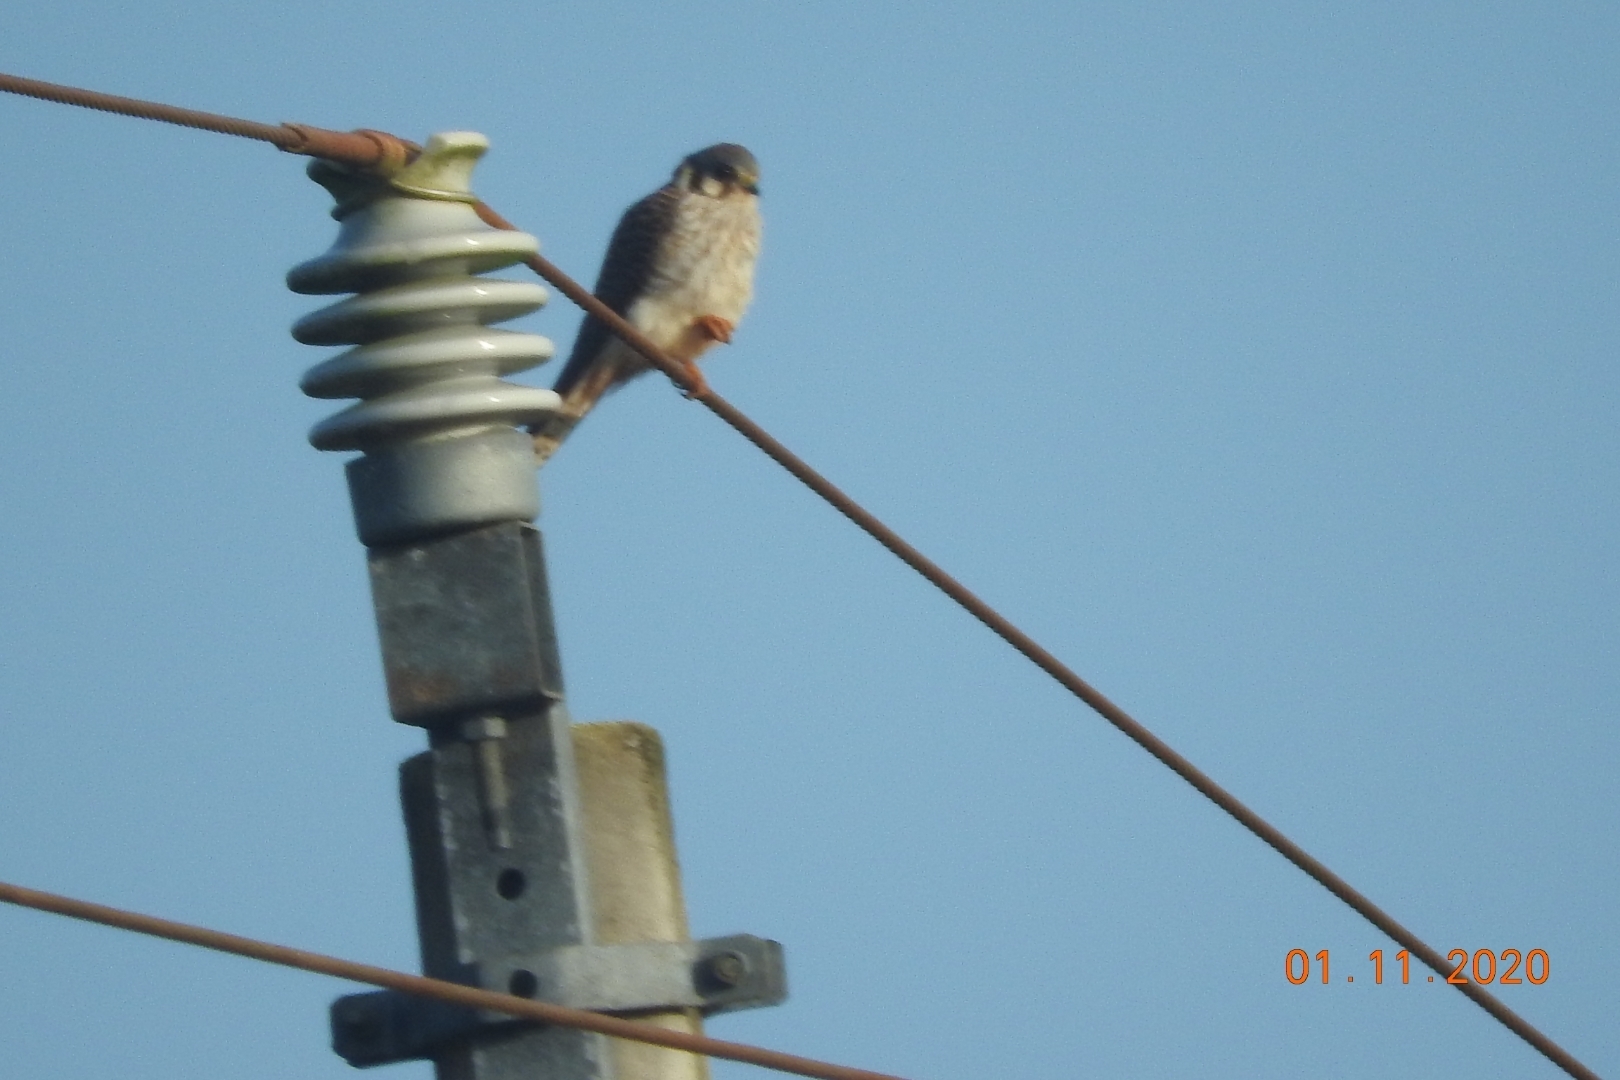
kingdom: Animalia
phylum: Chordata
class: Aves
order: Falconiformes
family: Falconidae
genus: Falco
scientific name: Falco sparverius
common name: American kestrel
